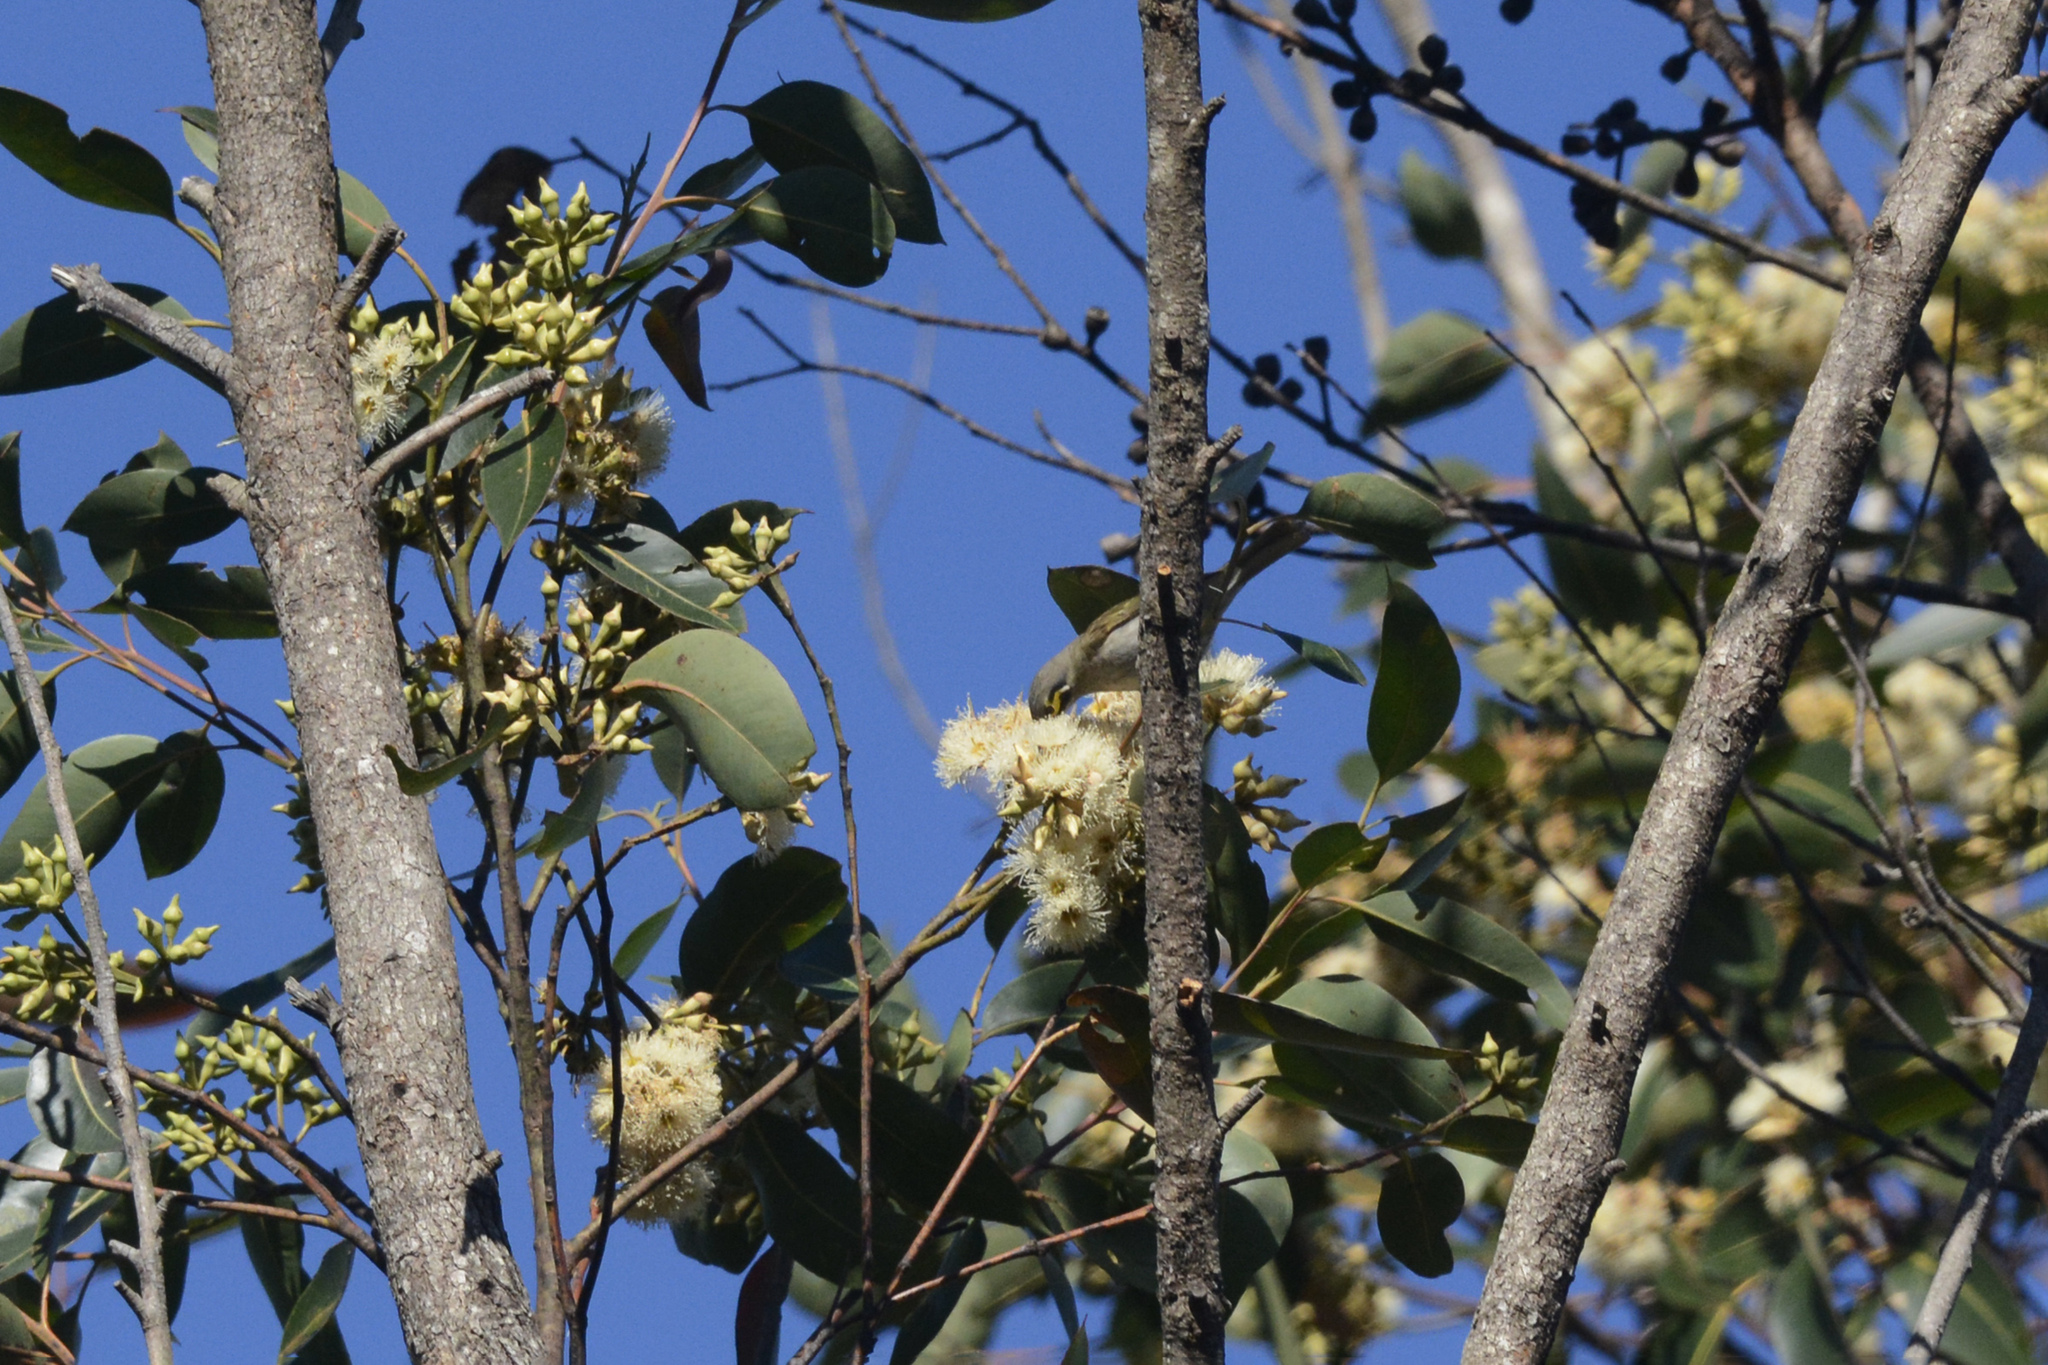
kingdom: Animalia
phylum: Chordata
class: Aves
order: Passeriformes
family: Meliphagidae
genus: Caligavis
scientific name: Caligavis chrysops
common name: Yellow-faced honeyeater
